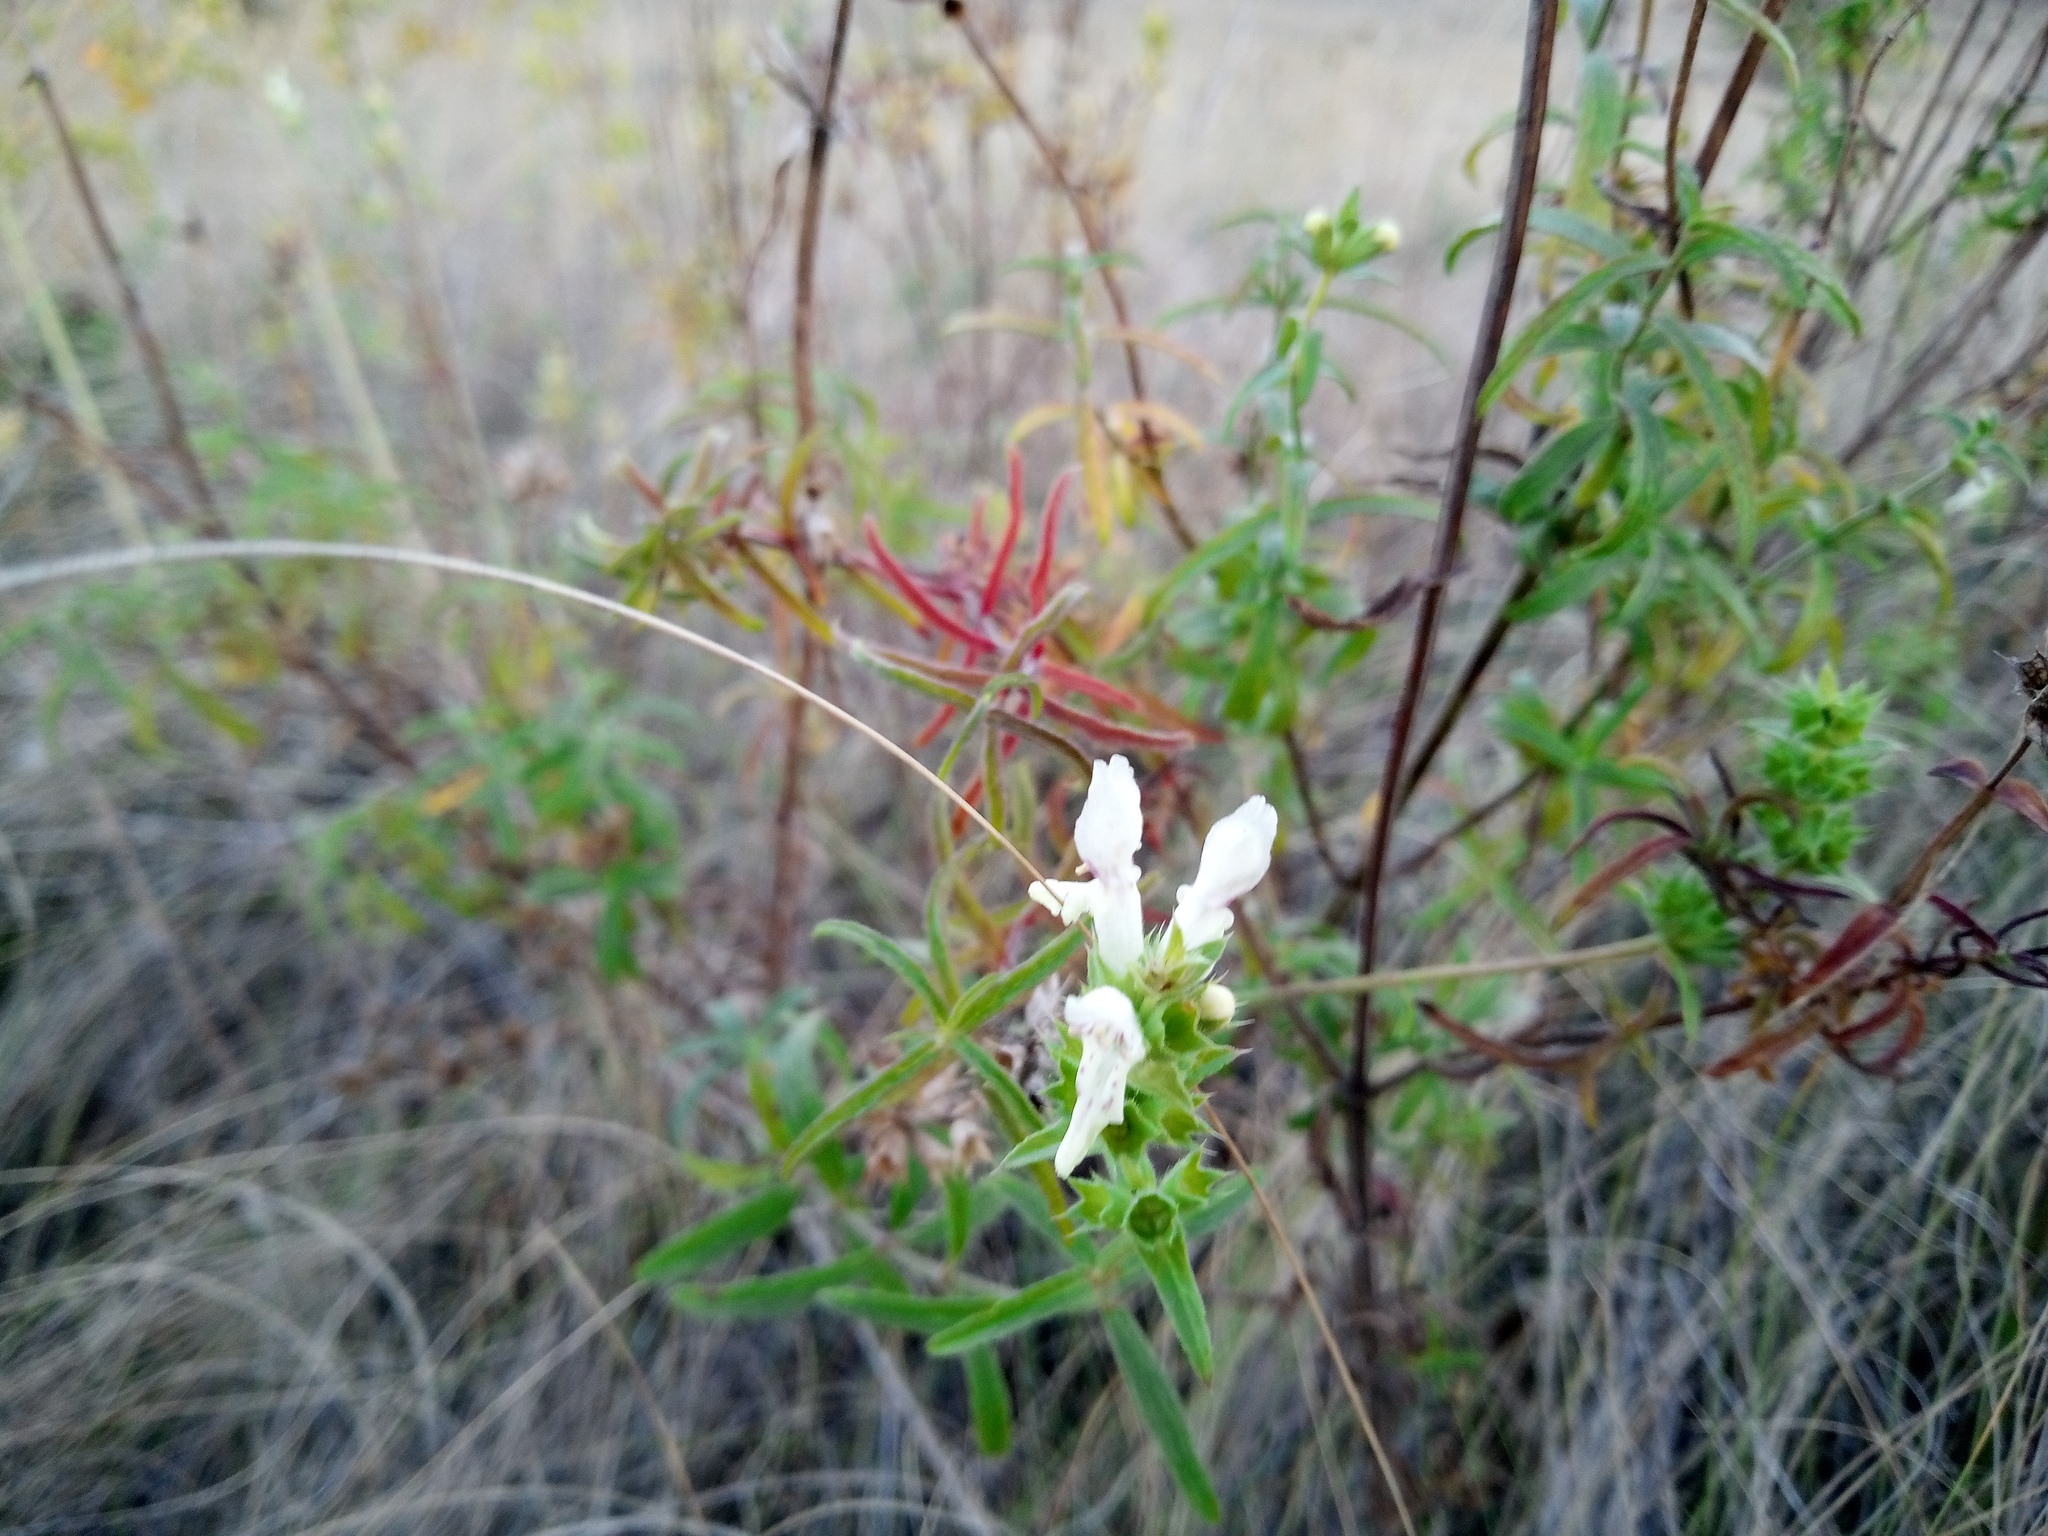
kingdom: Plantae
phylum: Tracheophyta
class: Magnoliopsida
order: Lamiales
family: Lamiaceae
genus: Stachys
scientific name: Stachys recta
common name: Perennial yellow-woundwort
